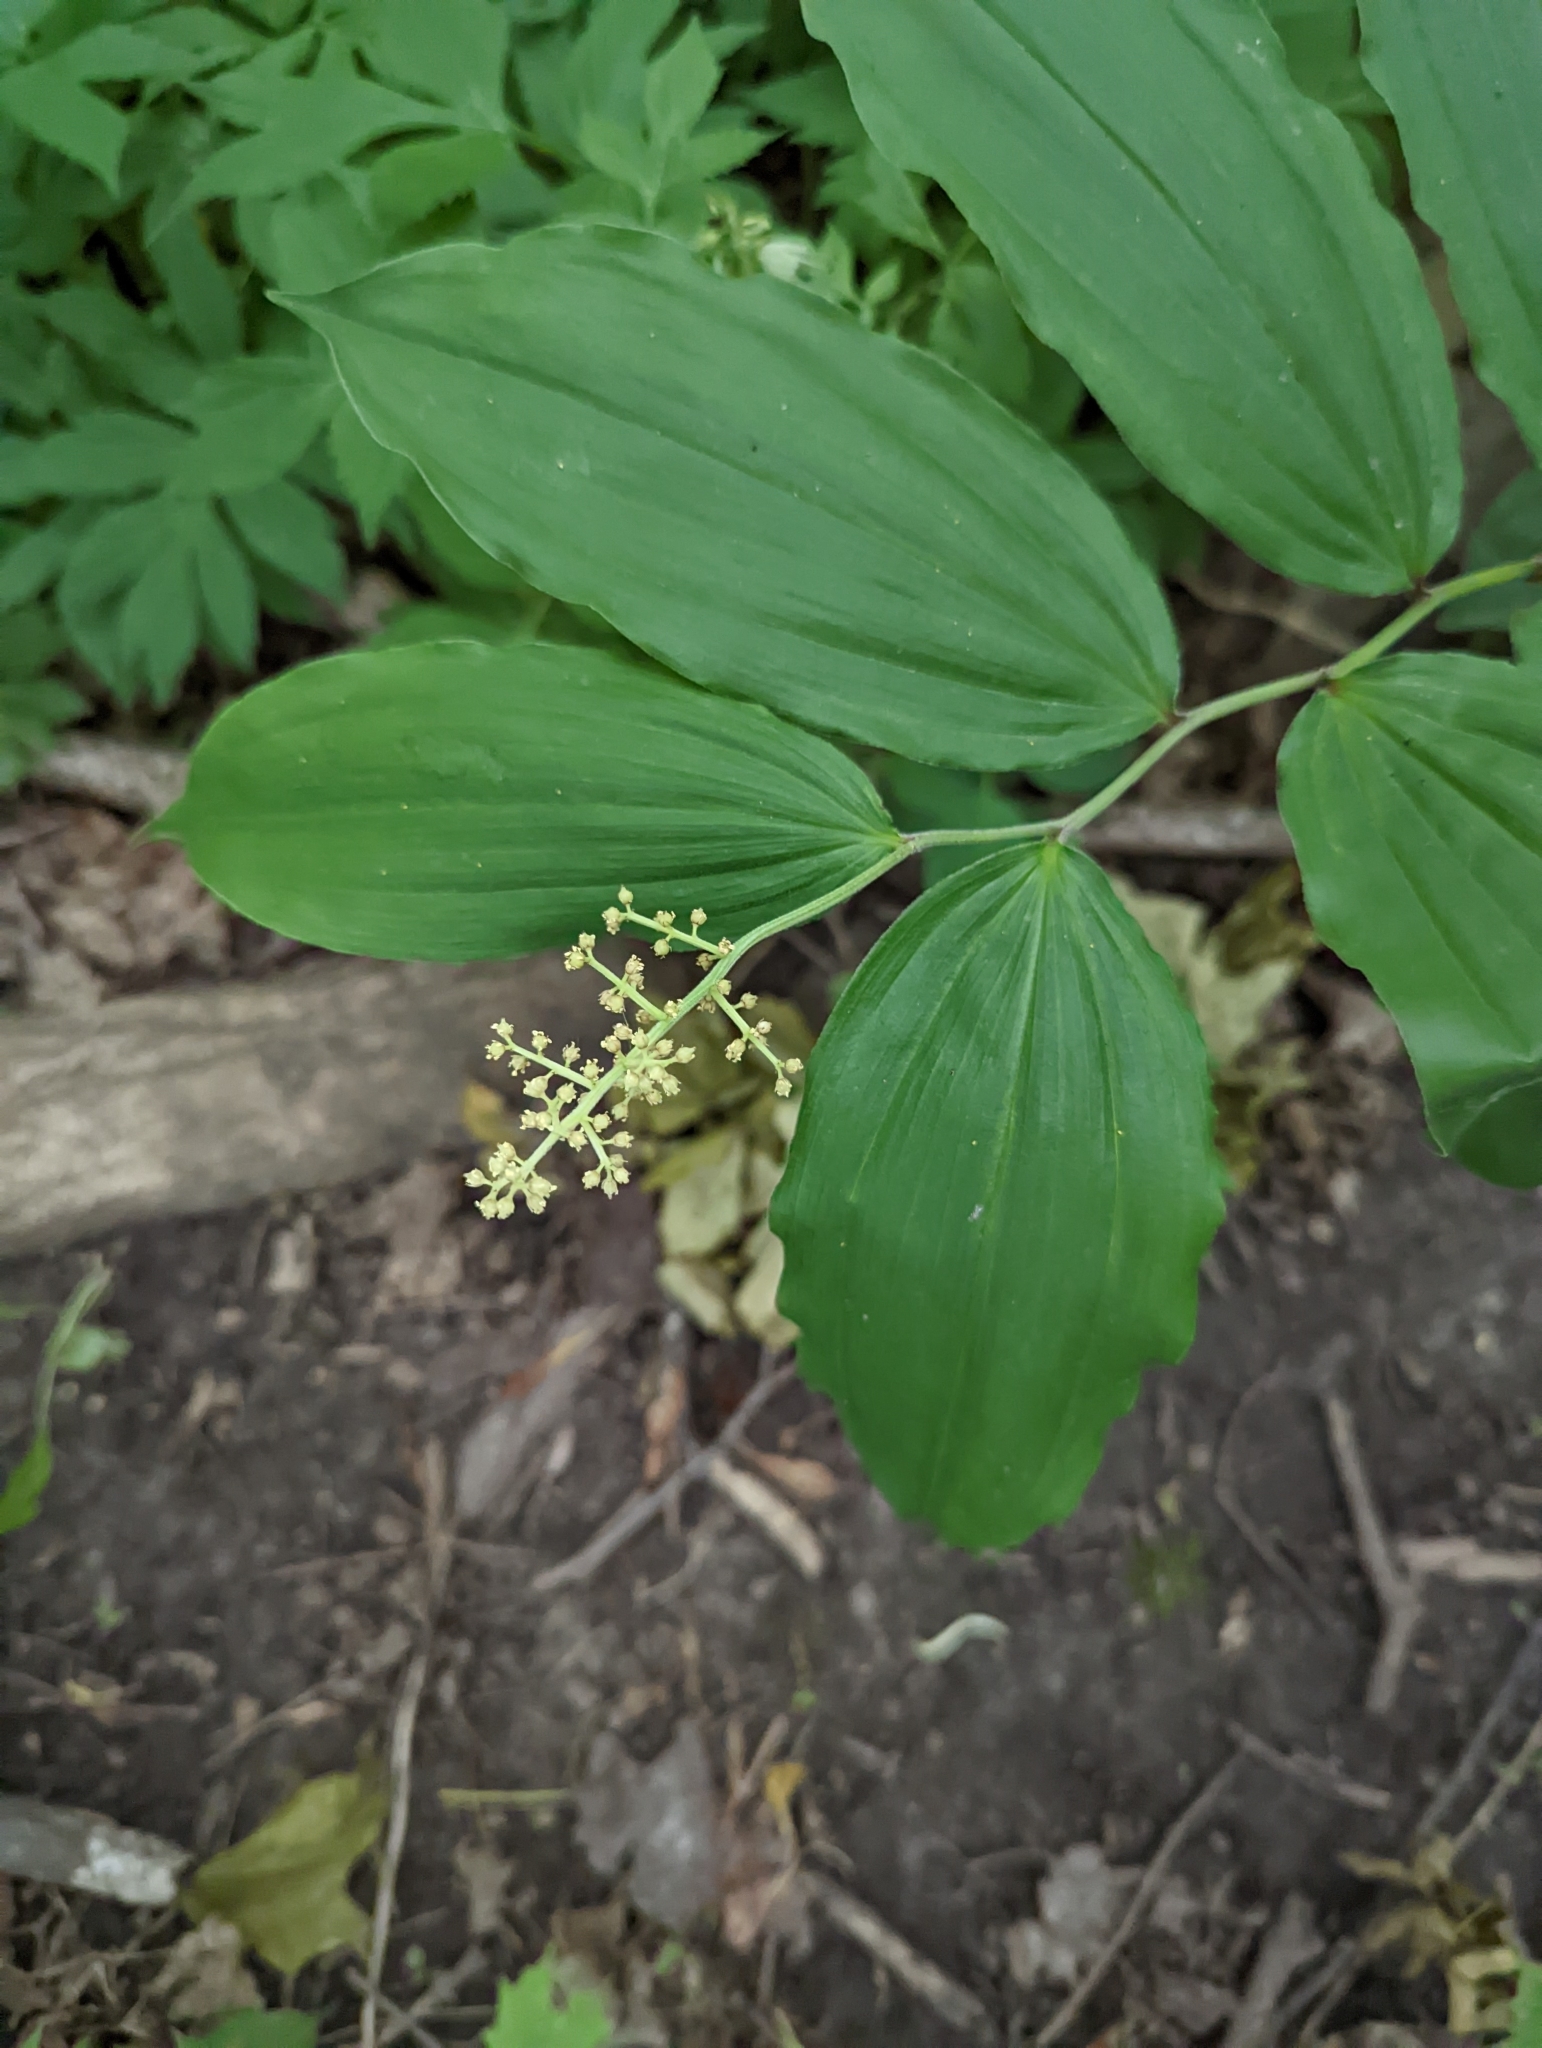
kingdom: Plantae
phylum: Tracheophyta
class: Liliopsida
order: Asparagales
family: Asparagaceae
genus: Maianthemum
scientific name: Maianthemum racemosum
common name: False spikenard
